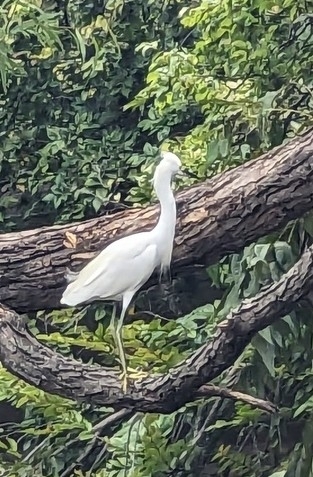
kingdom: Animalia
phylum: Chordata
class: Aves
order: Pelecaniformes
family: Ardeidae
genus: Egretta
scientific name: Egretta thula
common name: Snowy egret
